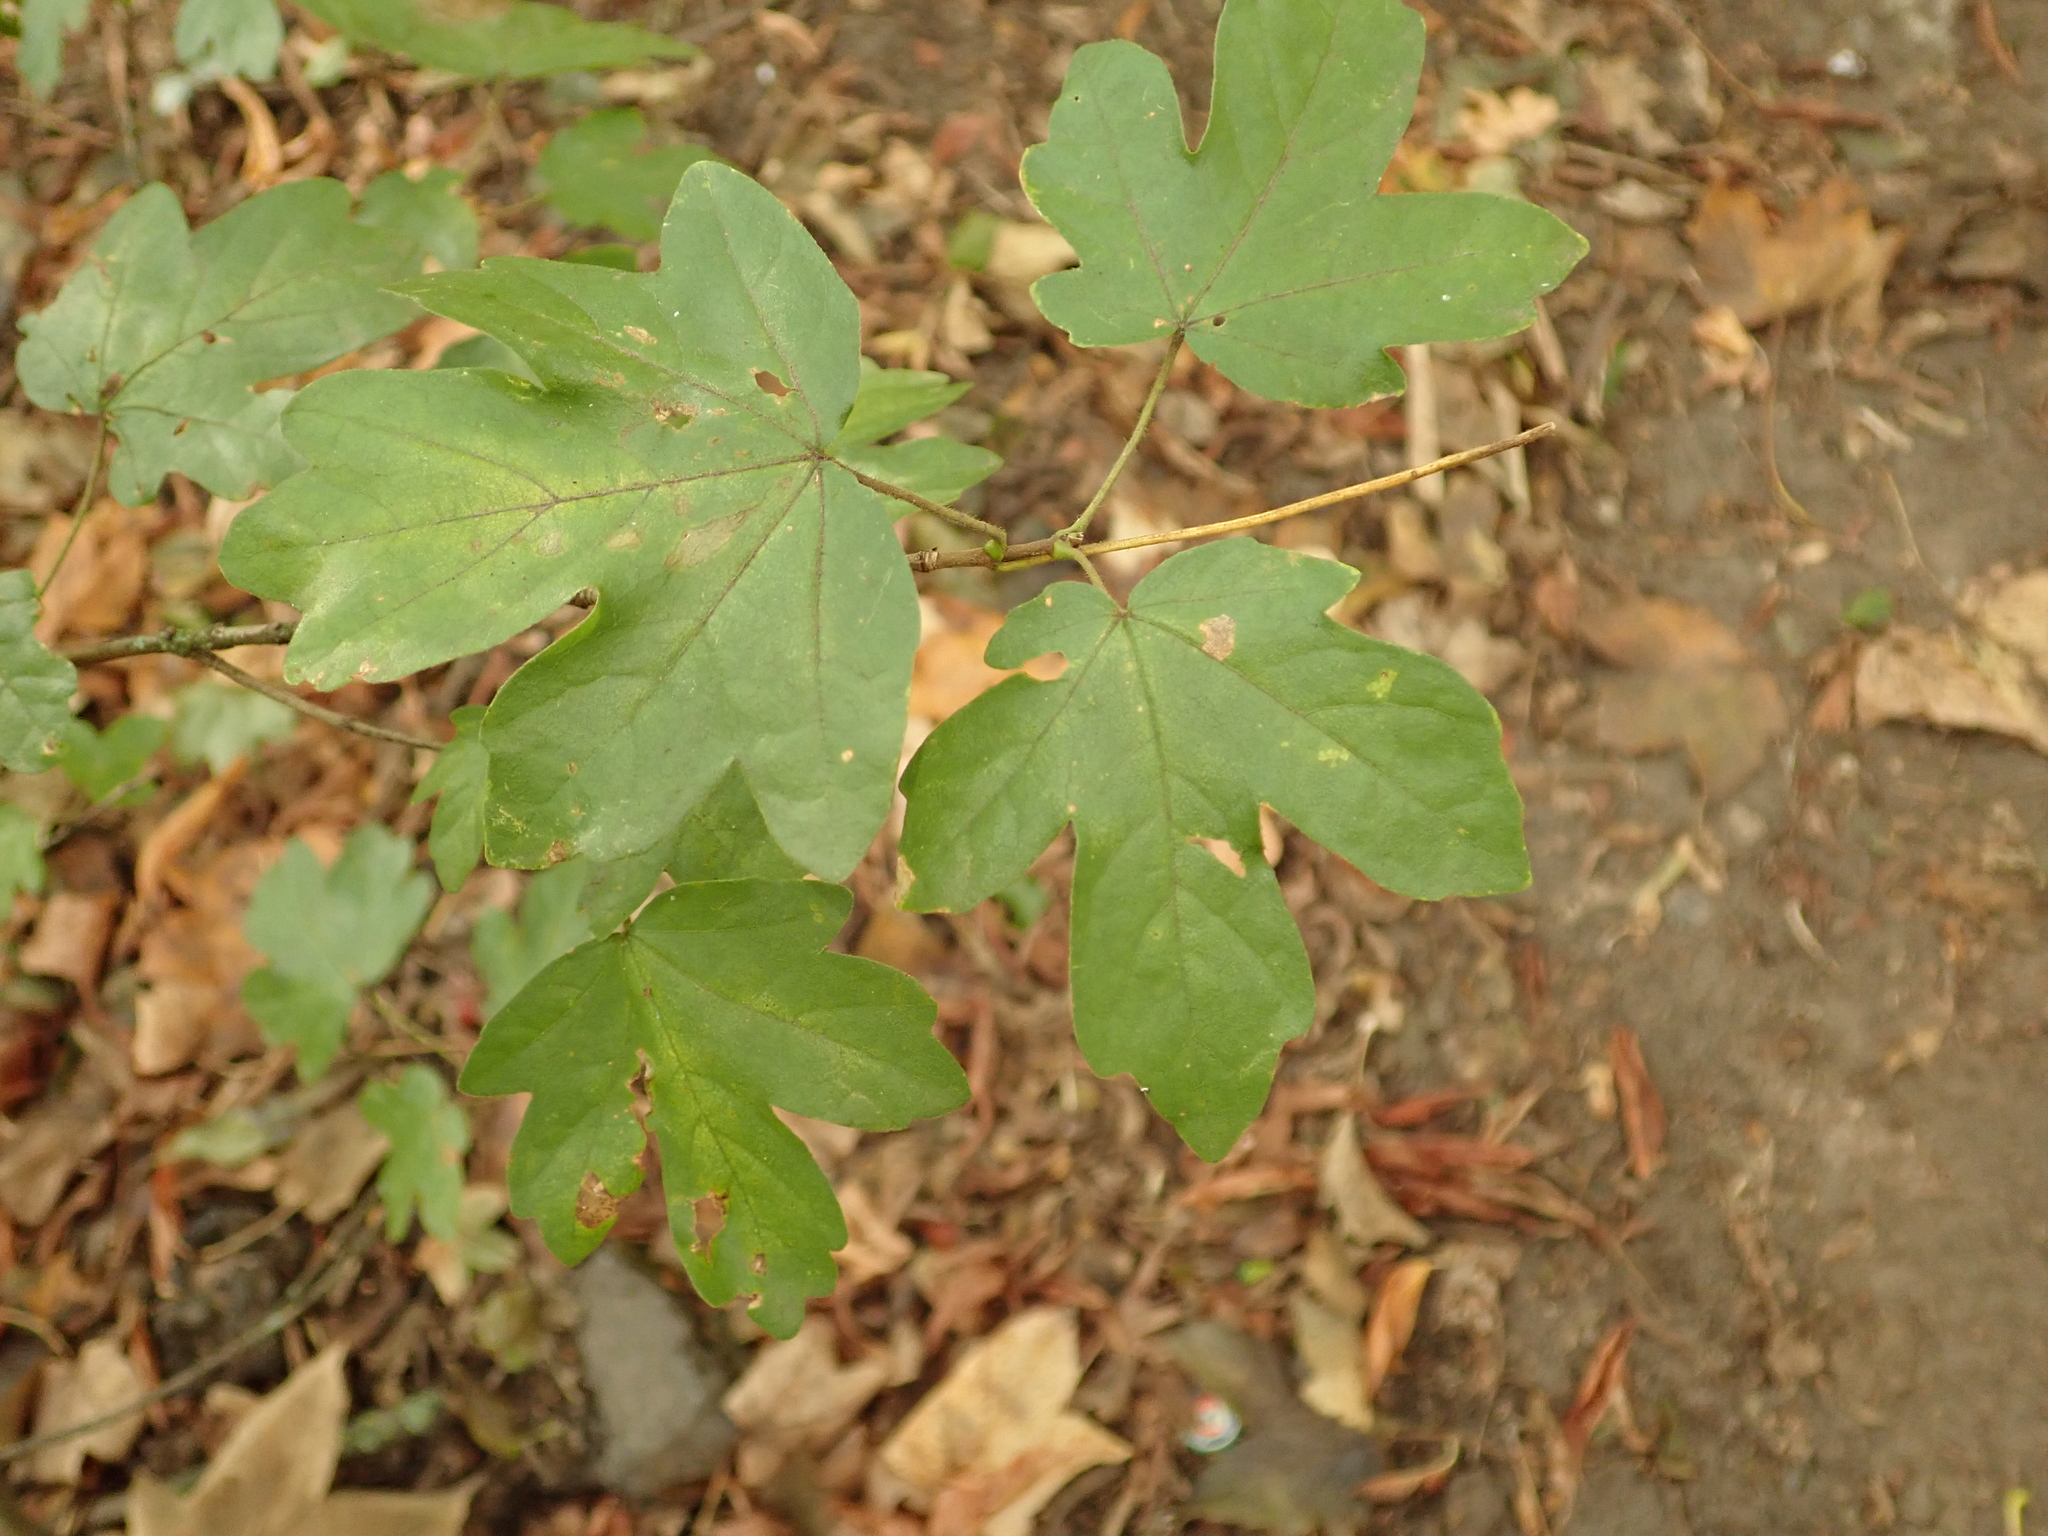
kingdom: Plantae
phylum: Tracheophyta
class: Magnoliopsida
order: Sapindales
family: Sapindaceae
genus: Acer
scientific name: Acer campestre
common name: Field maple
